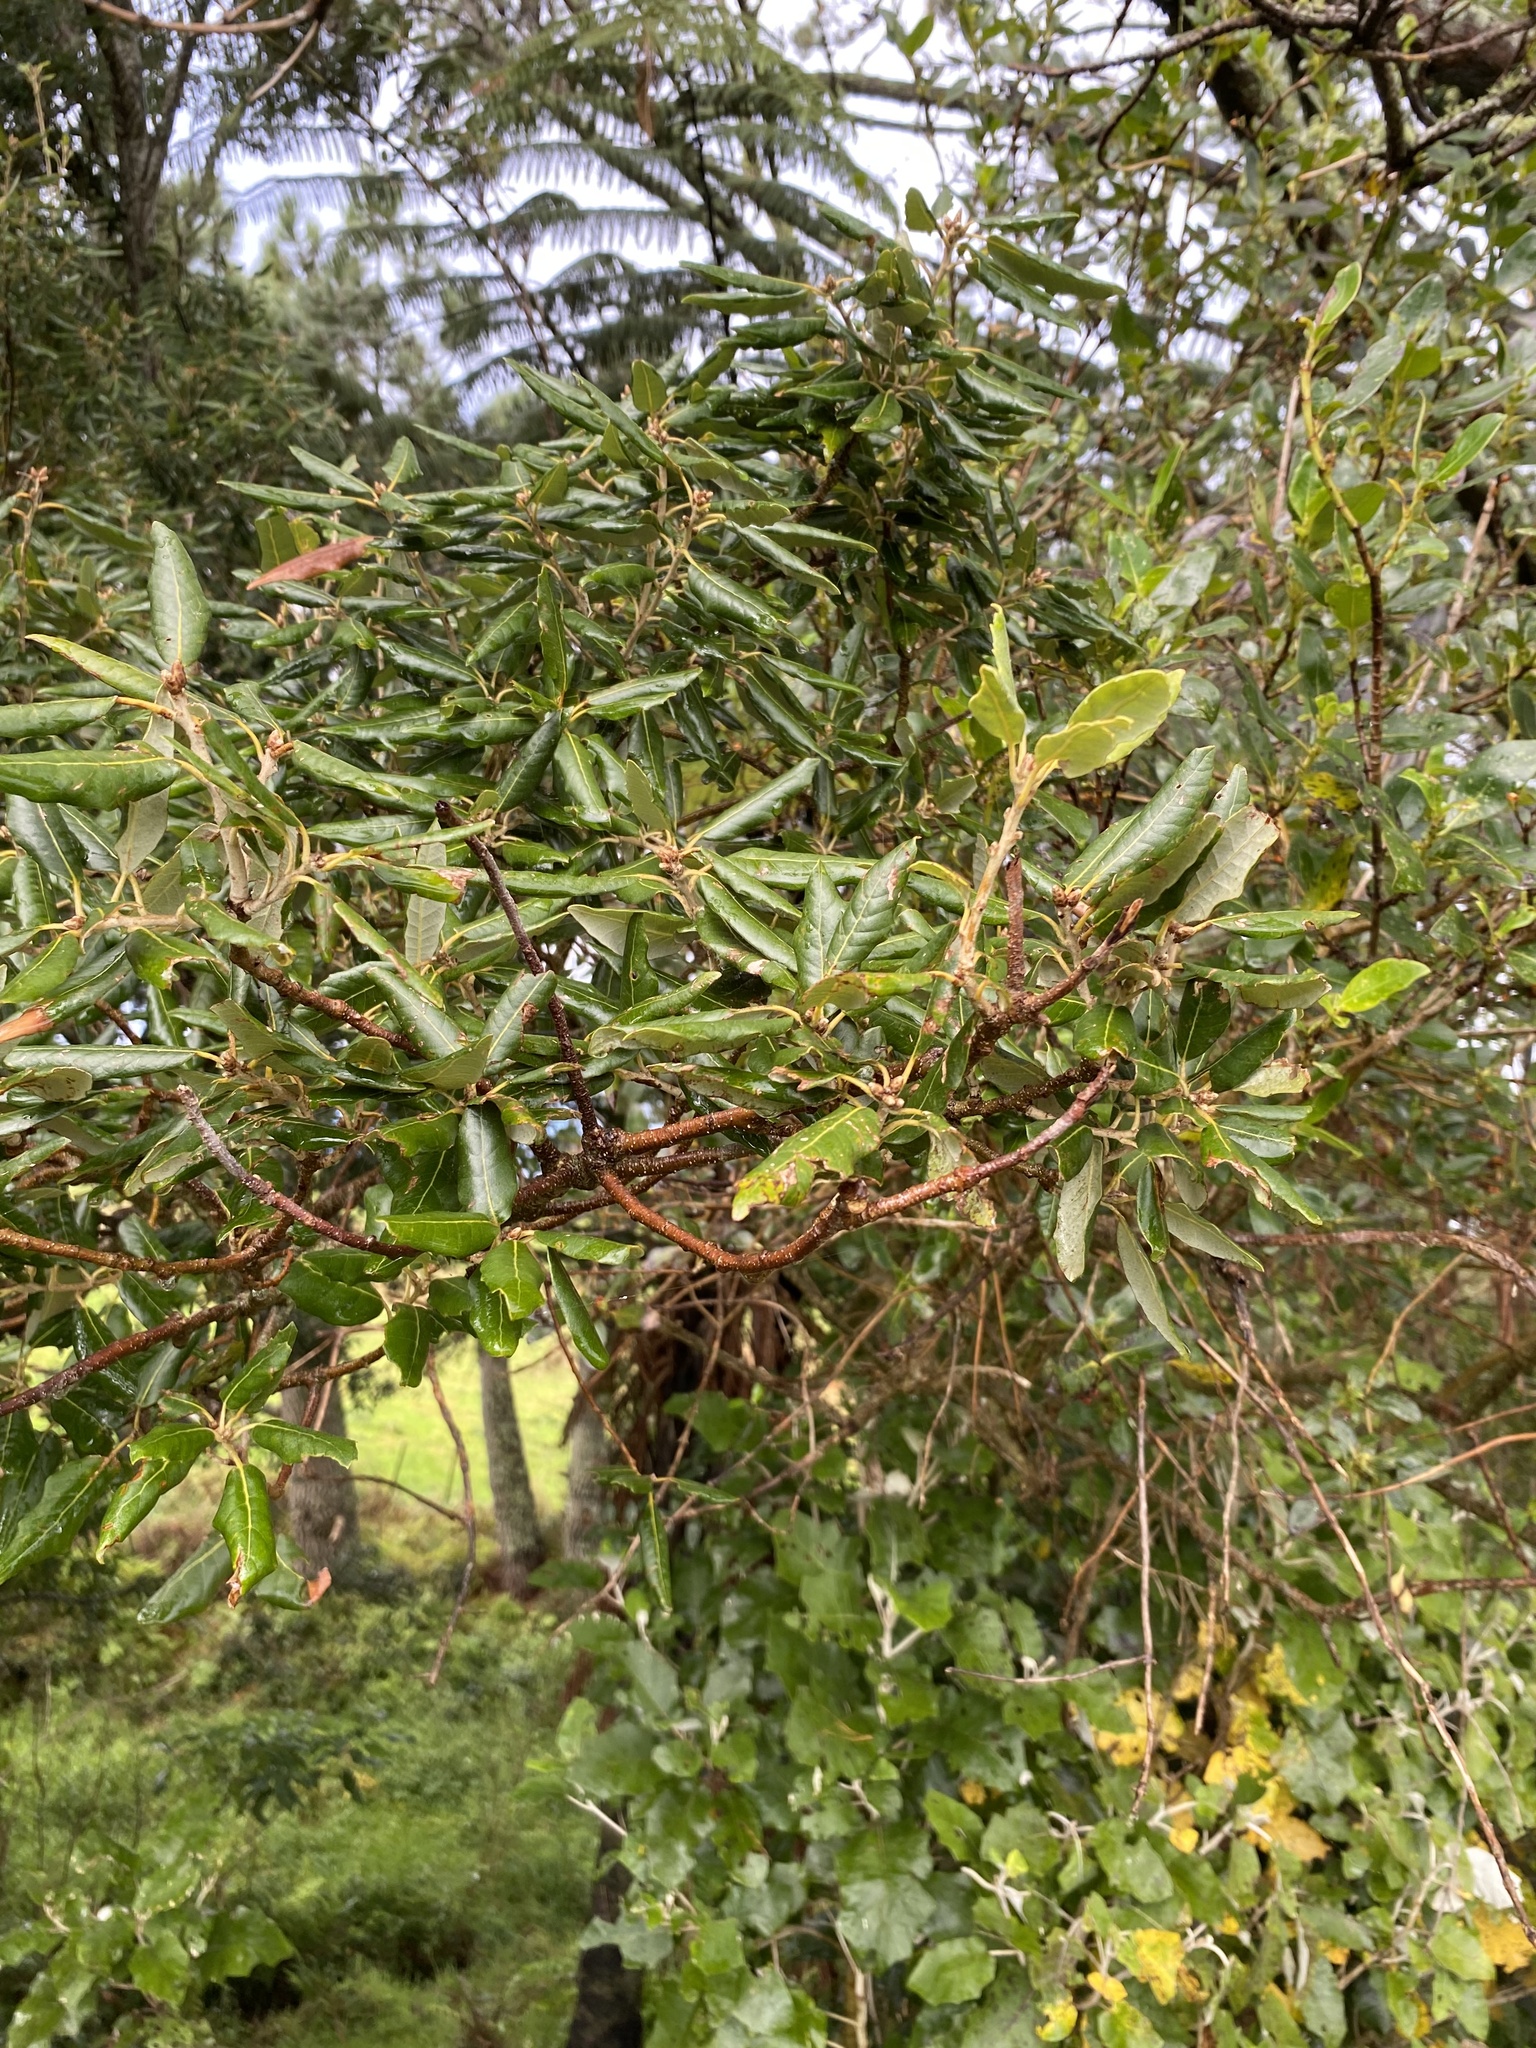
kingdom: Plantae
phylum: Tracheophyta
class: Magnoliopsida
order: Fagales
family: Fagaceae
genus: Quercus
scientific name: Quercus ilex
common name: Evergreen oak
